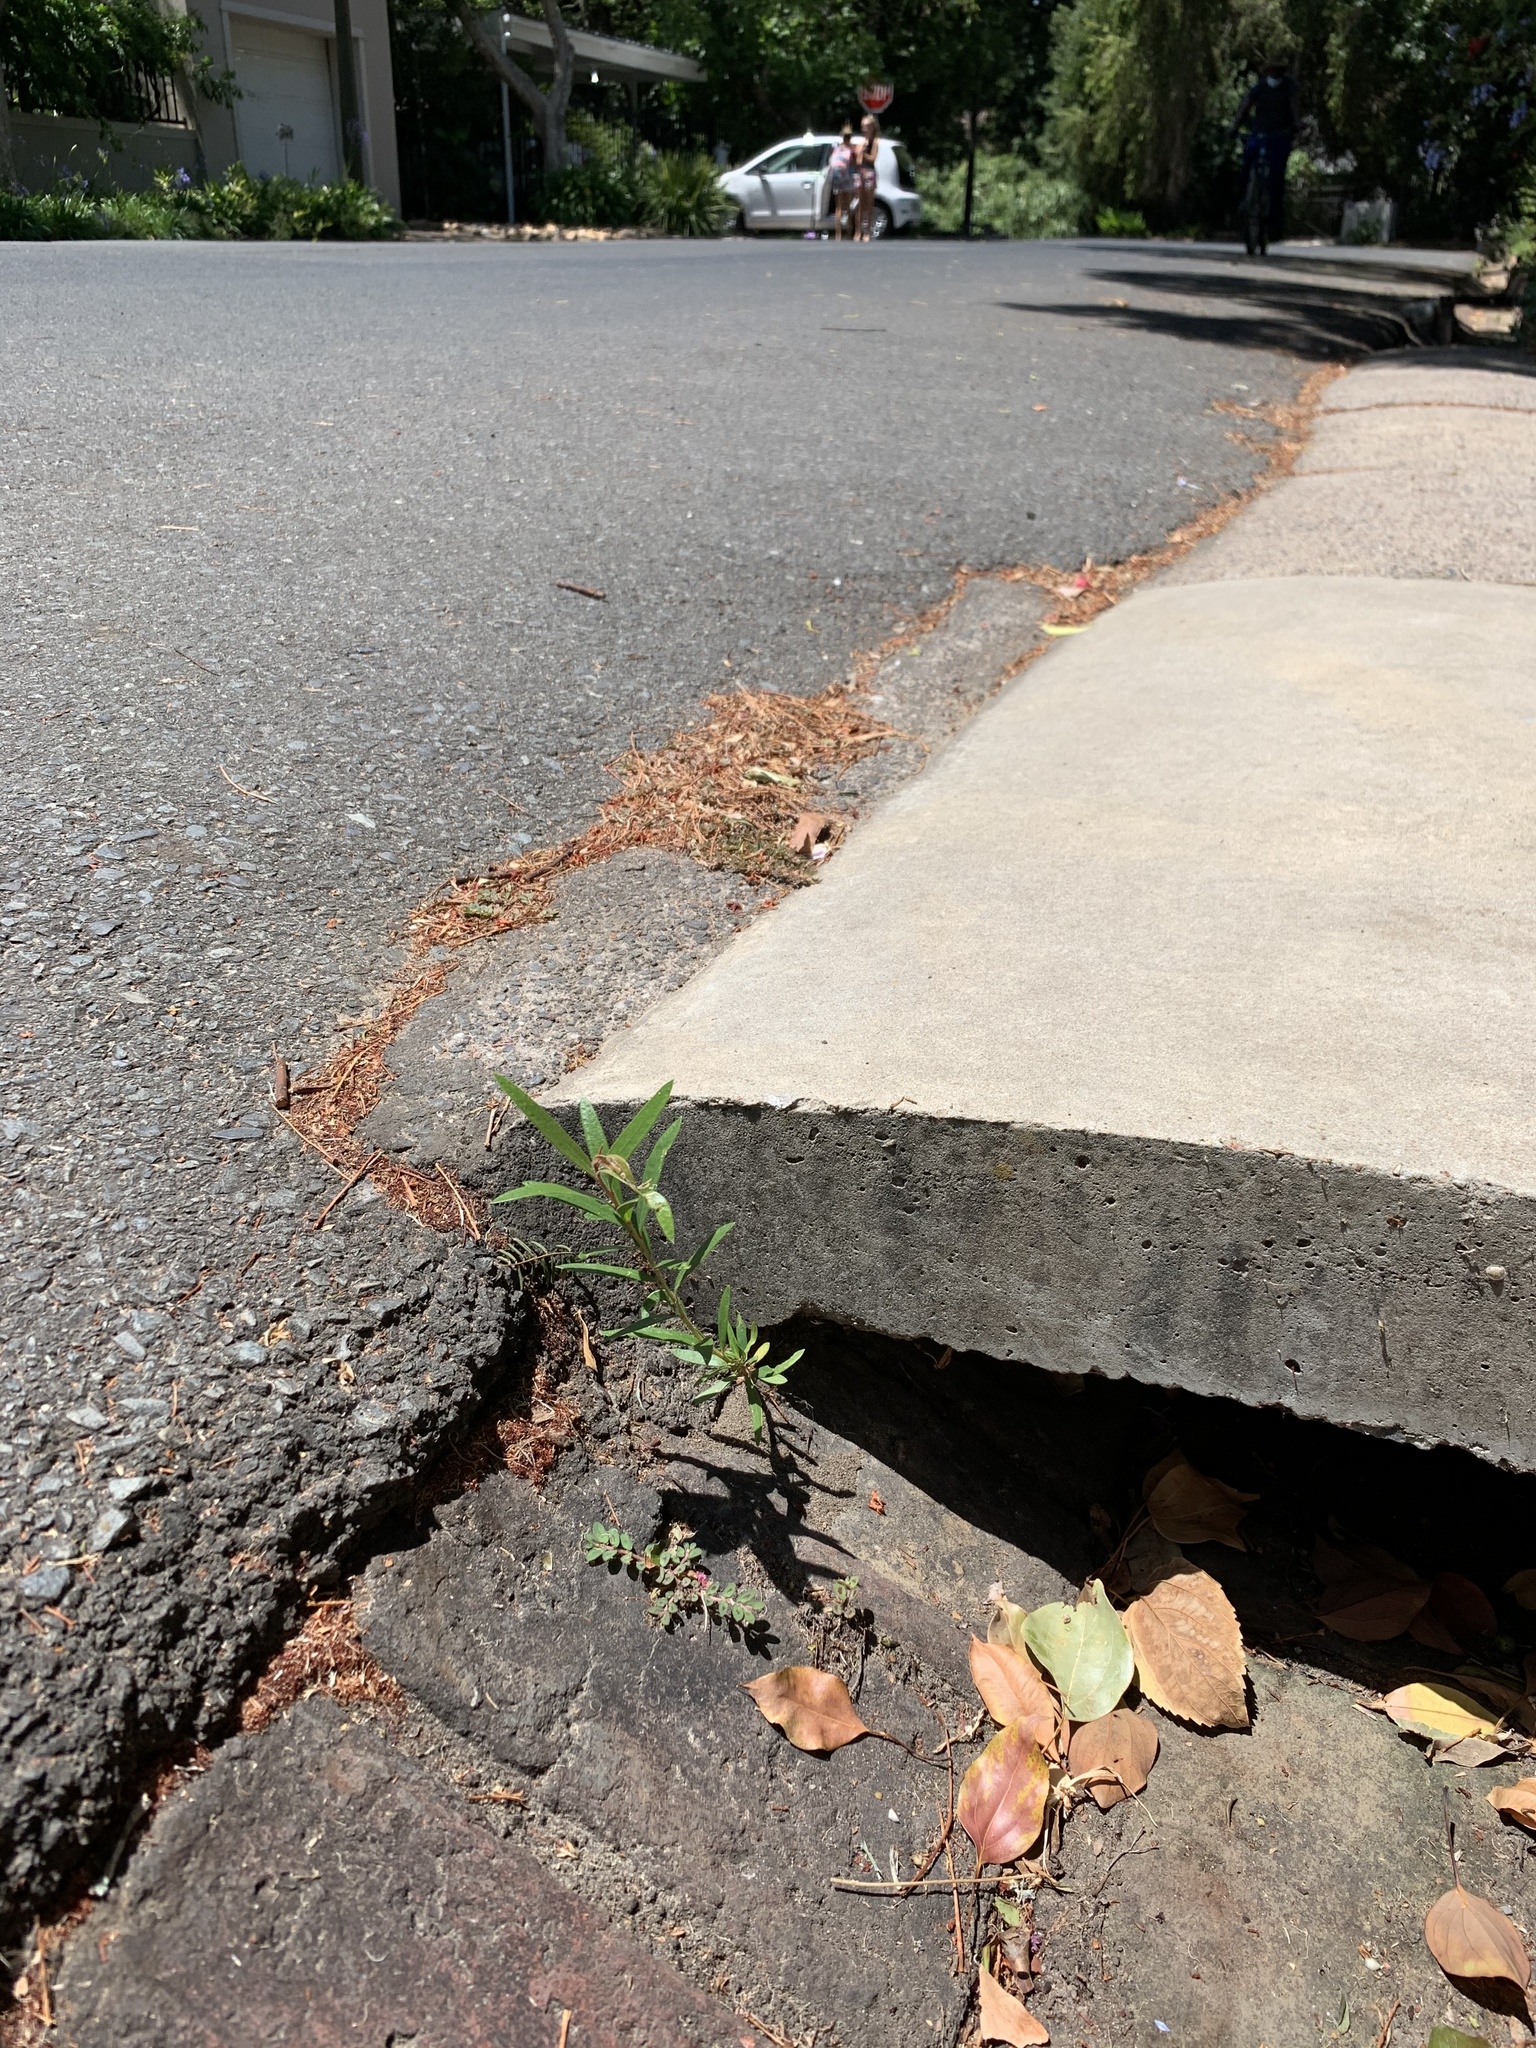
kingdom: Plantae
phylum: Tracheophyta
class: Magnoliopsida
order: Myrtales
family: Myrtaceae
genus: Callistemon
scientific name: Callistemon viminalis
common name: Drooping bottlebrush
